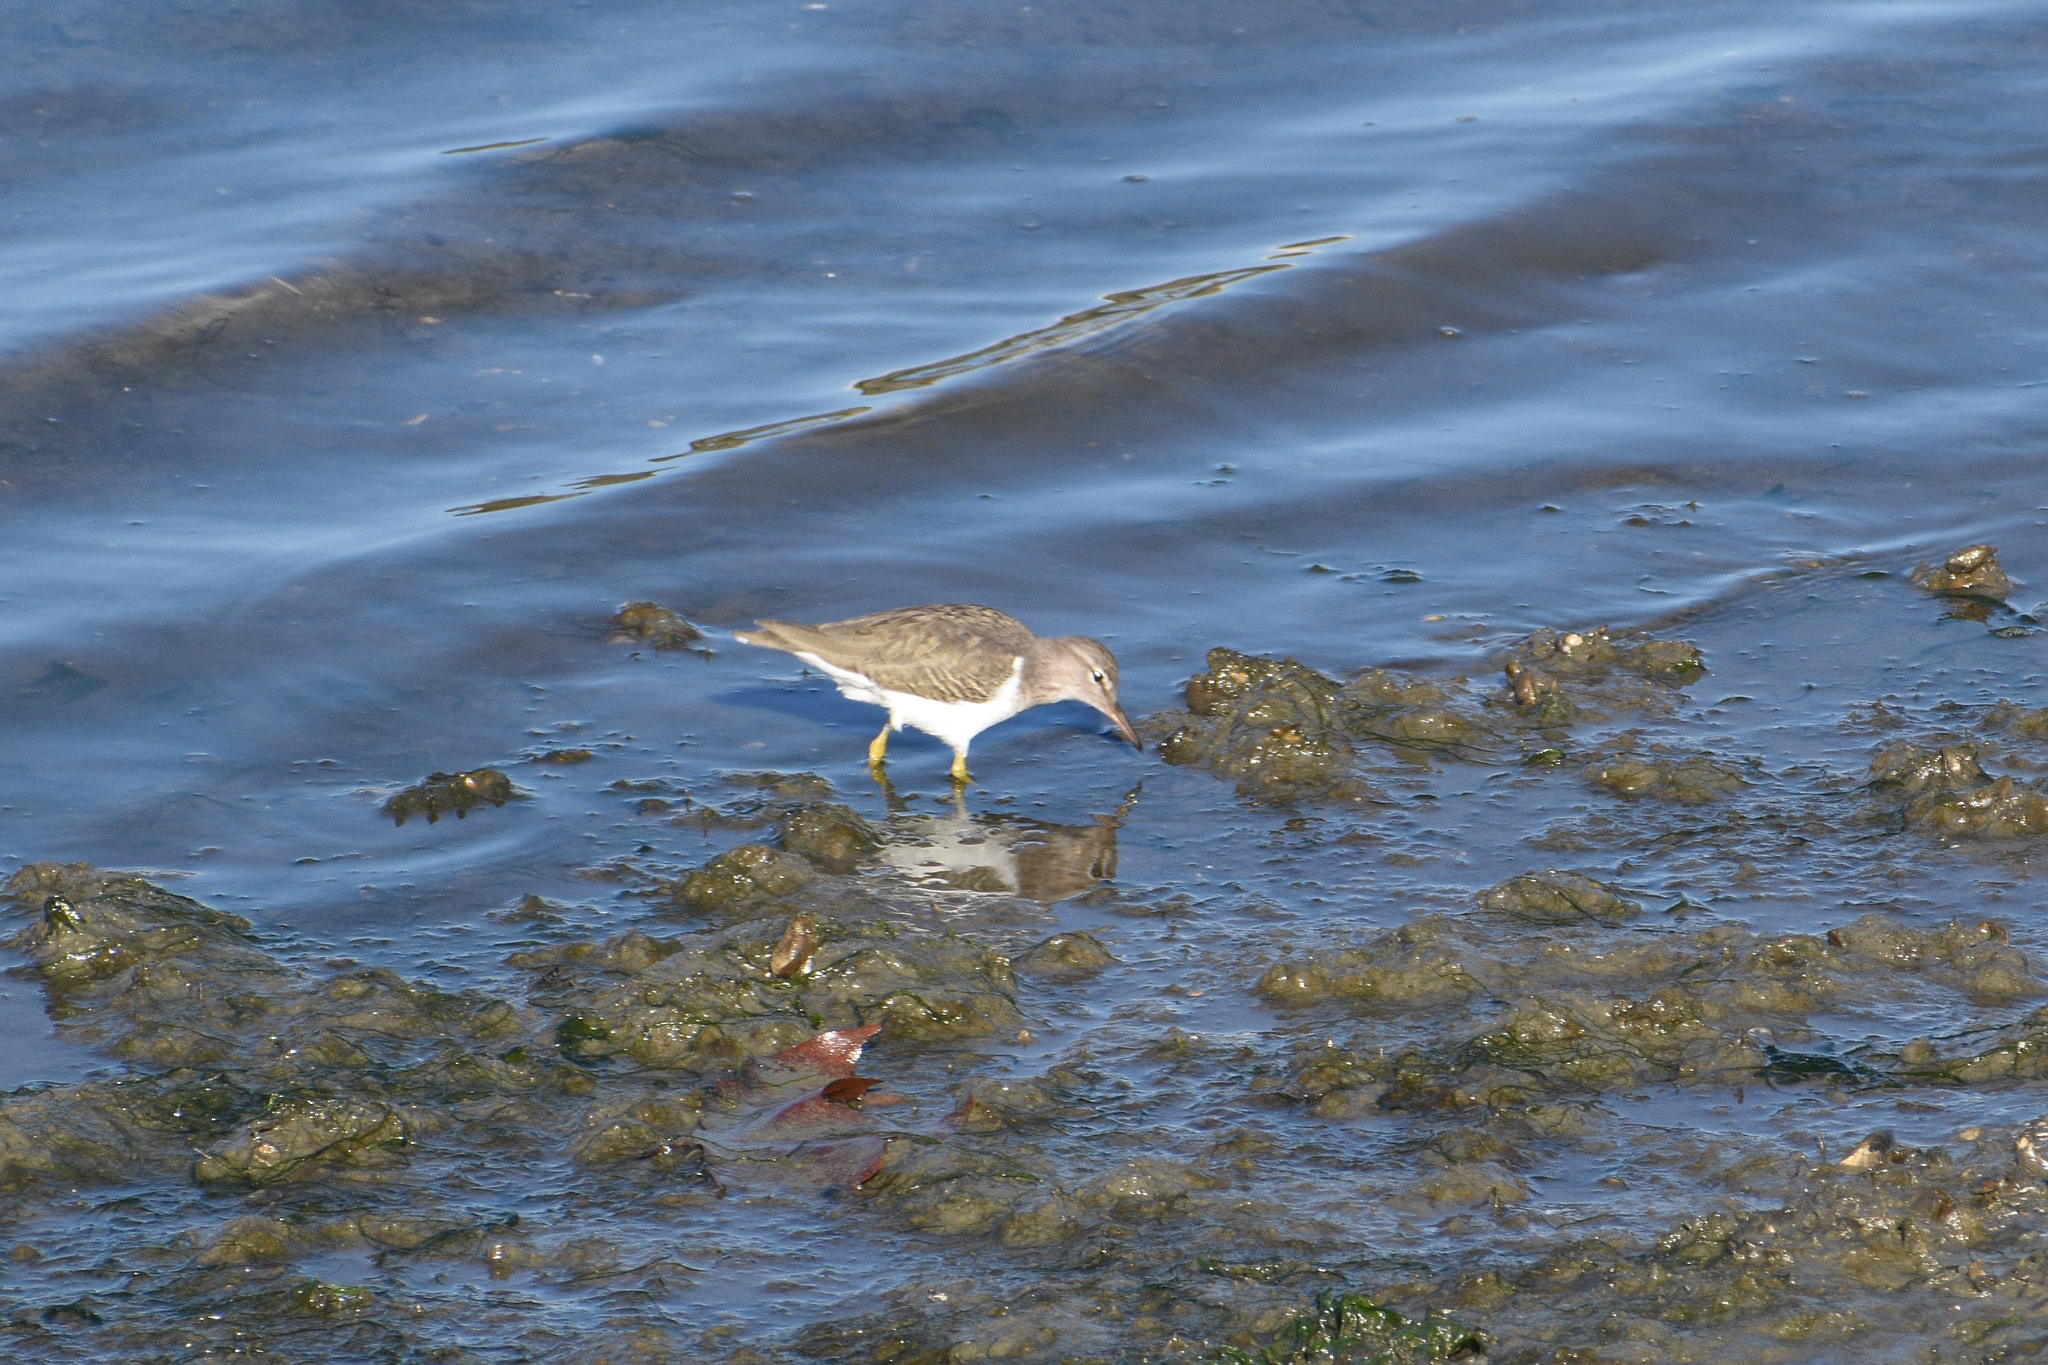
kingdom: Animalia
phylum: Chordata
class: Aves
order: Charadriiformes
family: Scolopacidae
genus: Actitis
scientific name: Actitis macularius
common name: Spotted sandpiper
